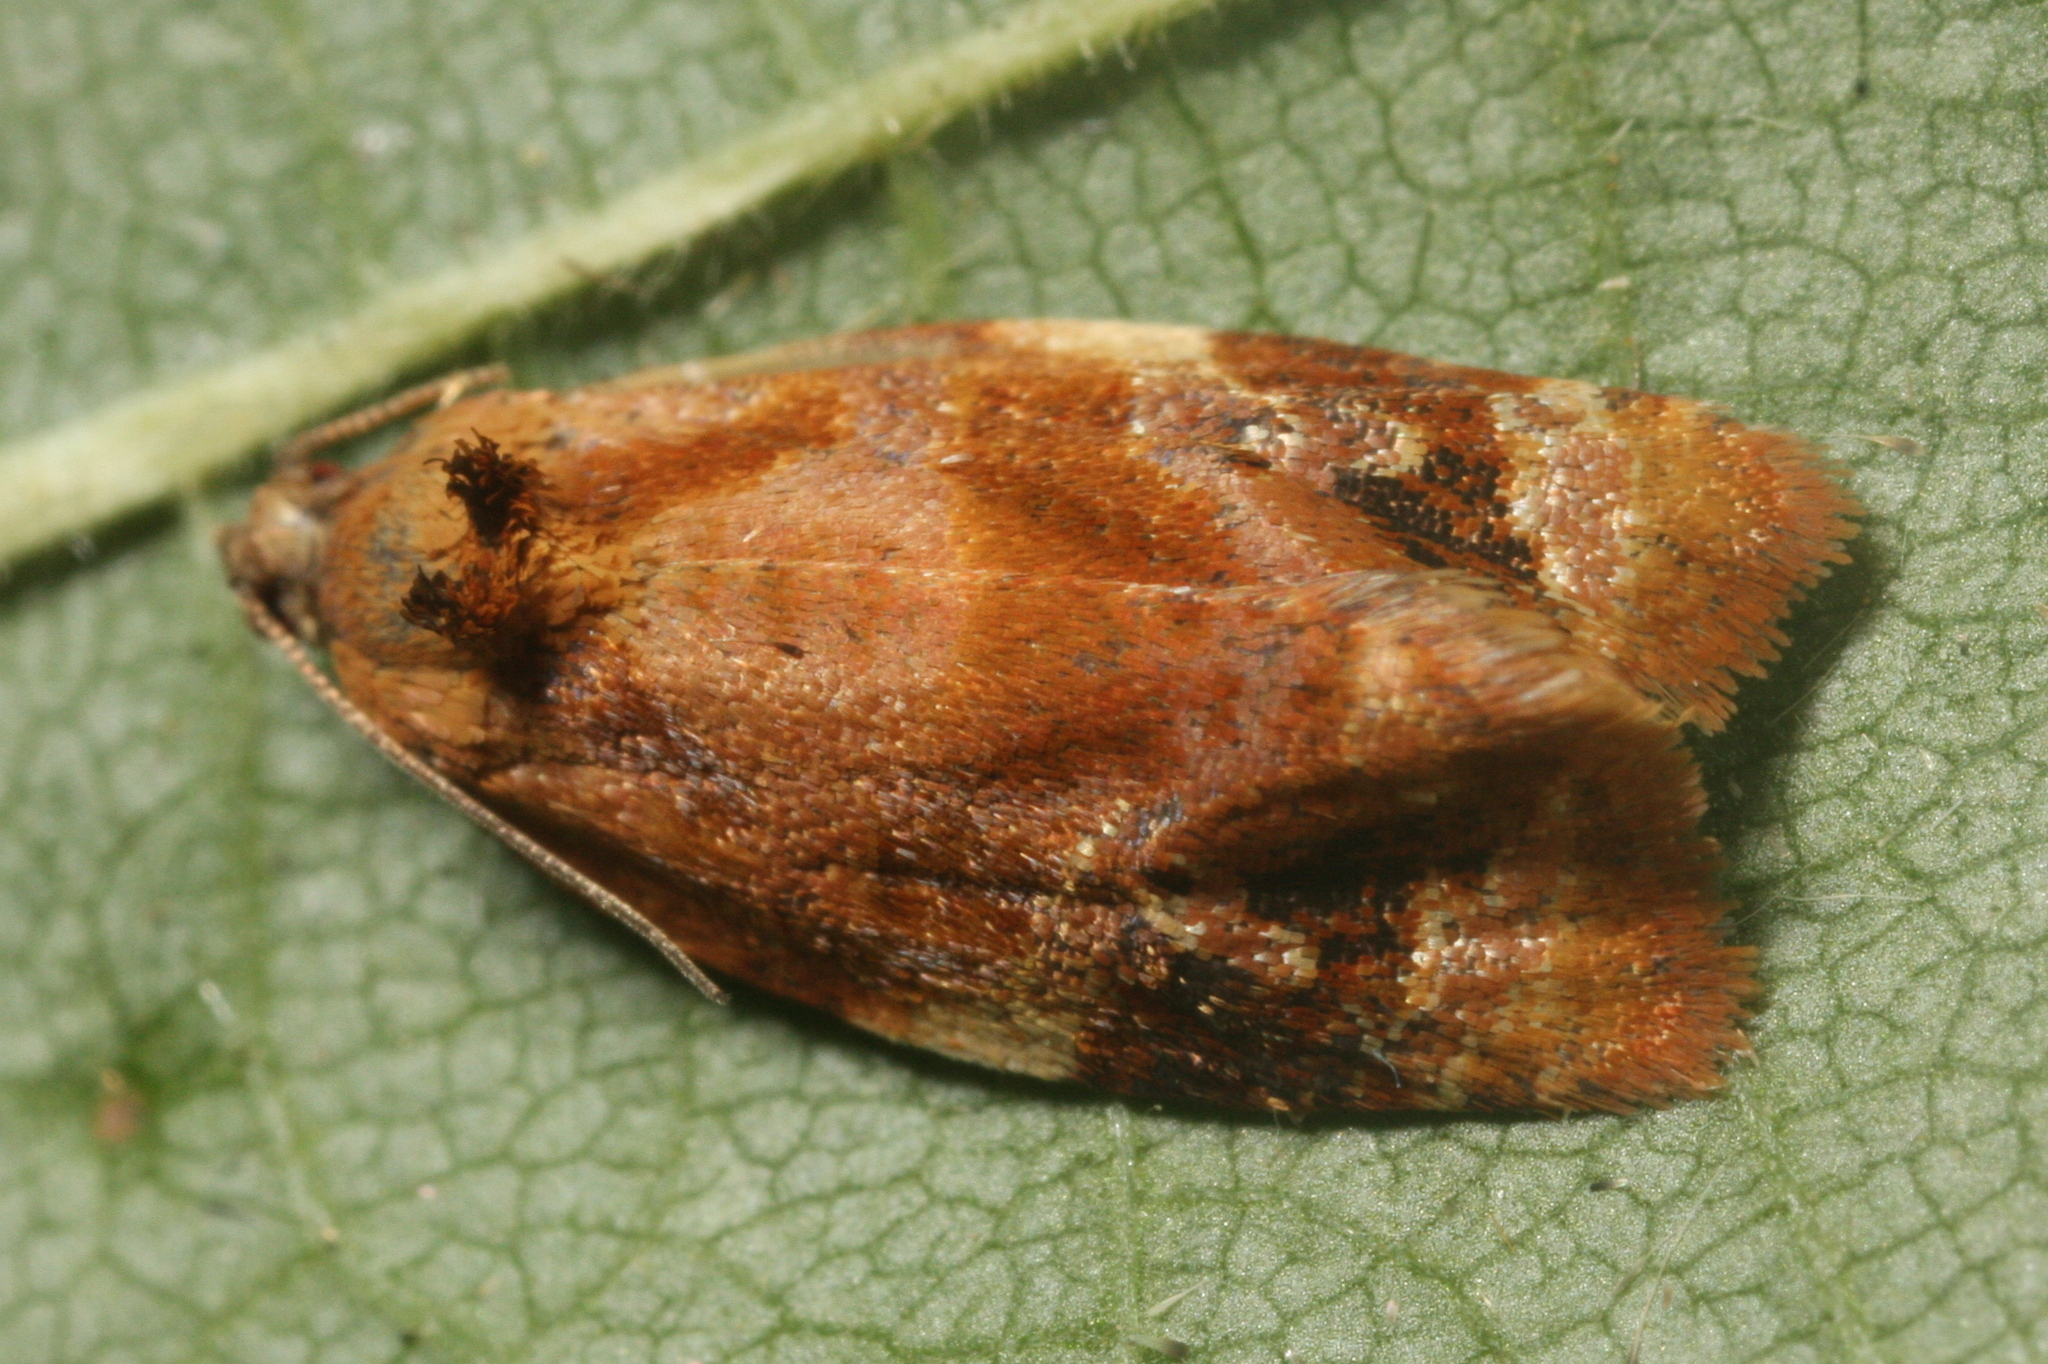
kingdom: Animalia
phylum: Arthropoda
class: Insecta
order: Lepidoptera
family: Tortricidae
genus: Ditula
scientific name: Ditula angustiorana
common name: Red-barred tortrix
